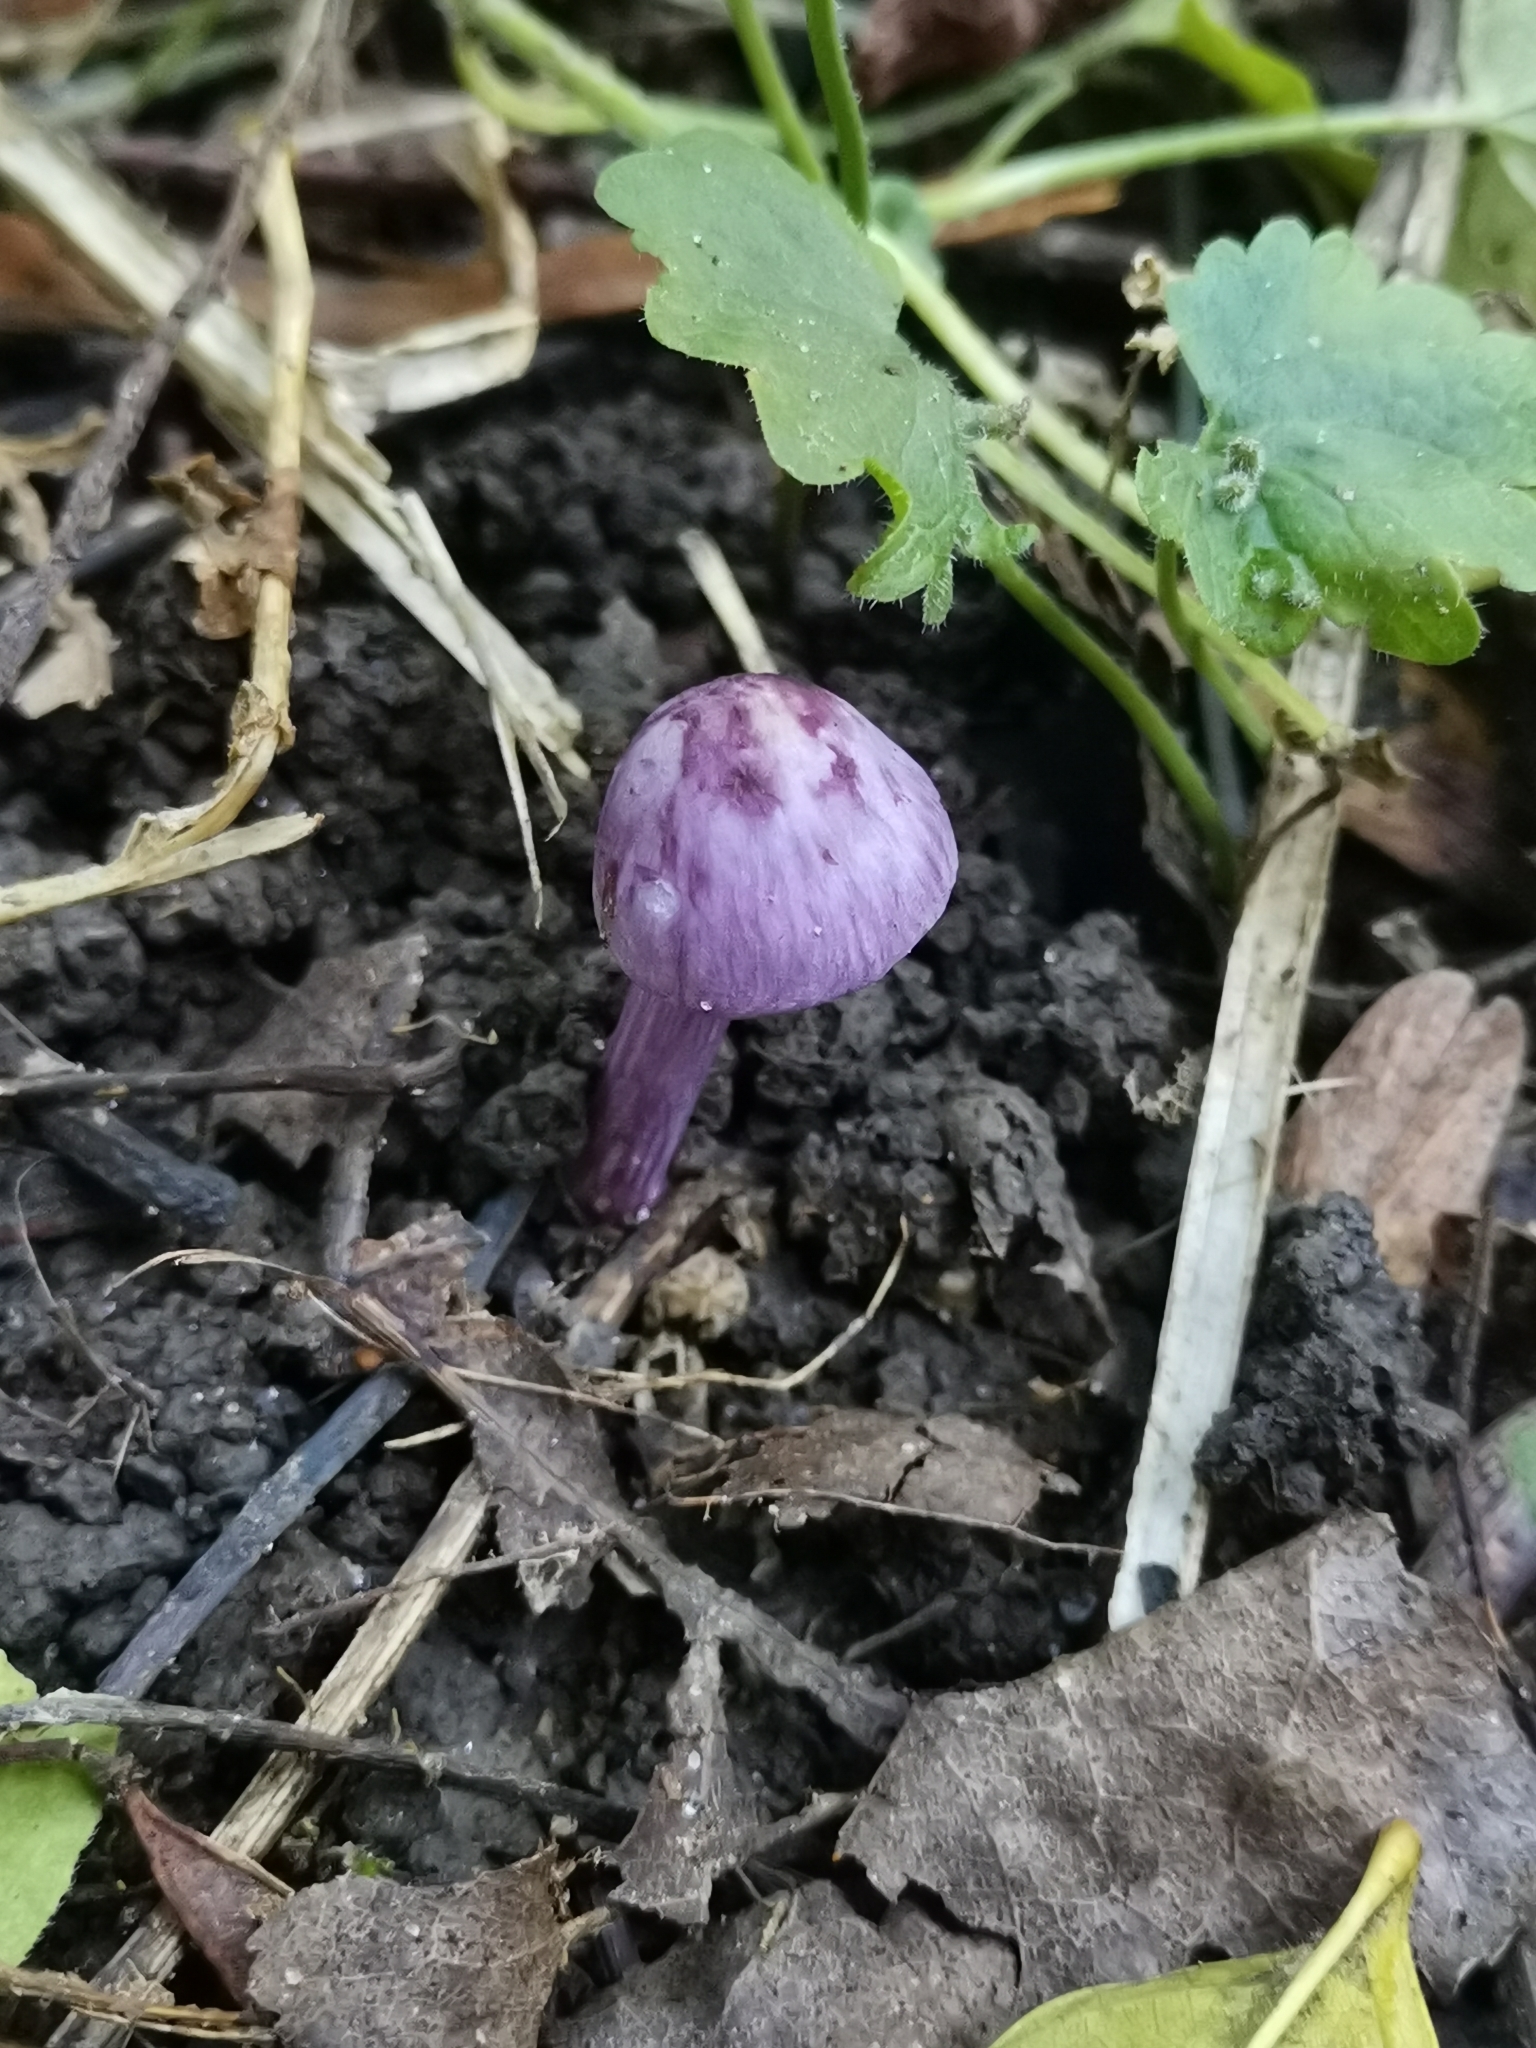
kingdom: Fungi
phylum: Basidiomycota
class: Agaricomycetes
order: Agaricales
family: Hydnangiaceae
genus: Laccaria
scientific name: Laccaria amethystina
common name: Amethyst deceiver
